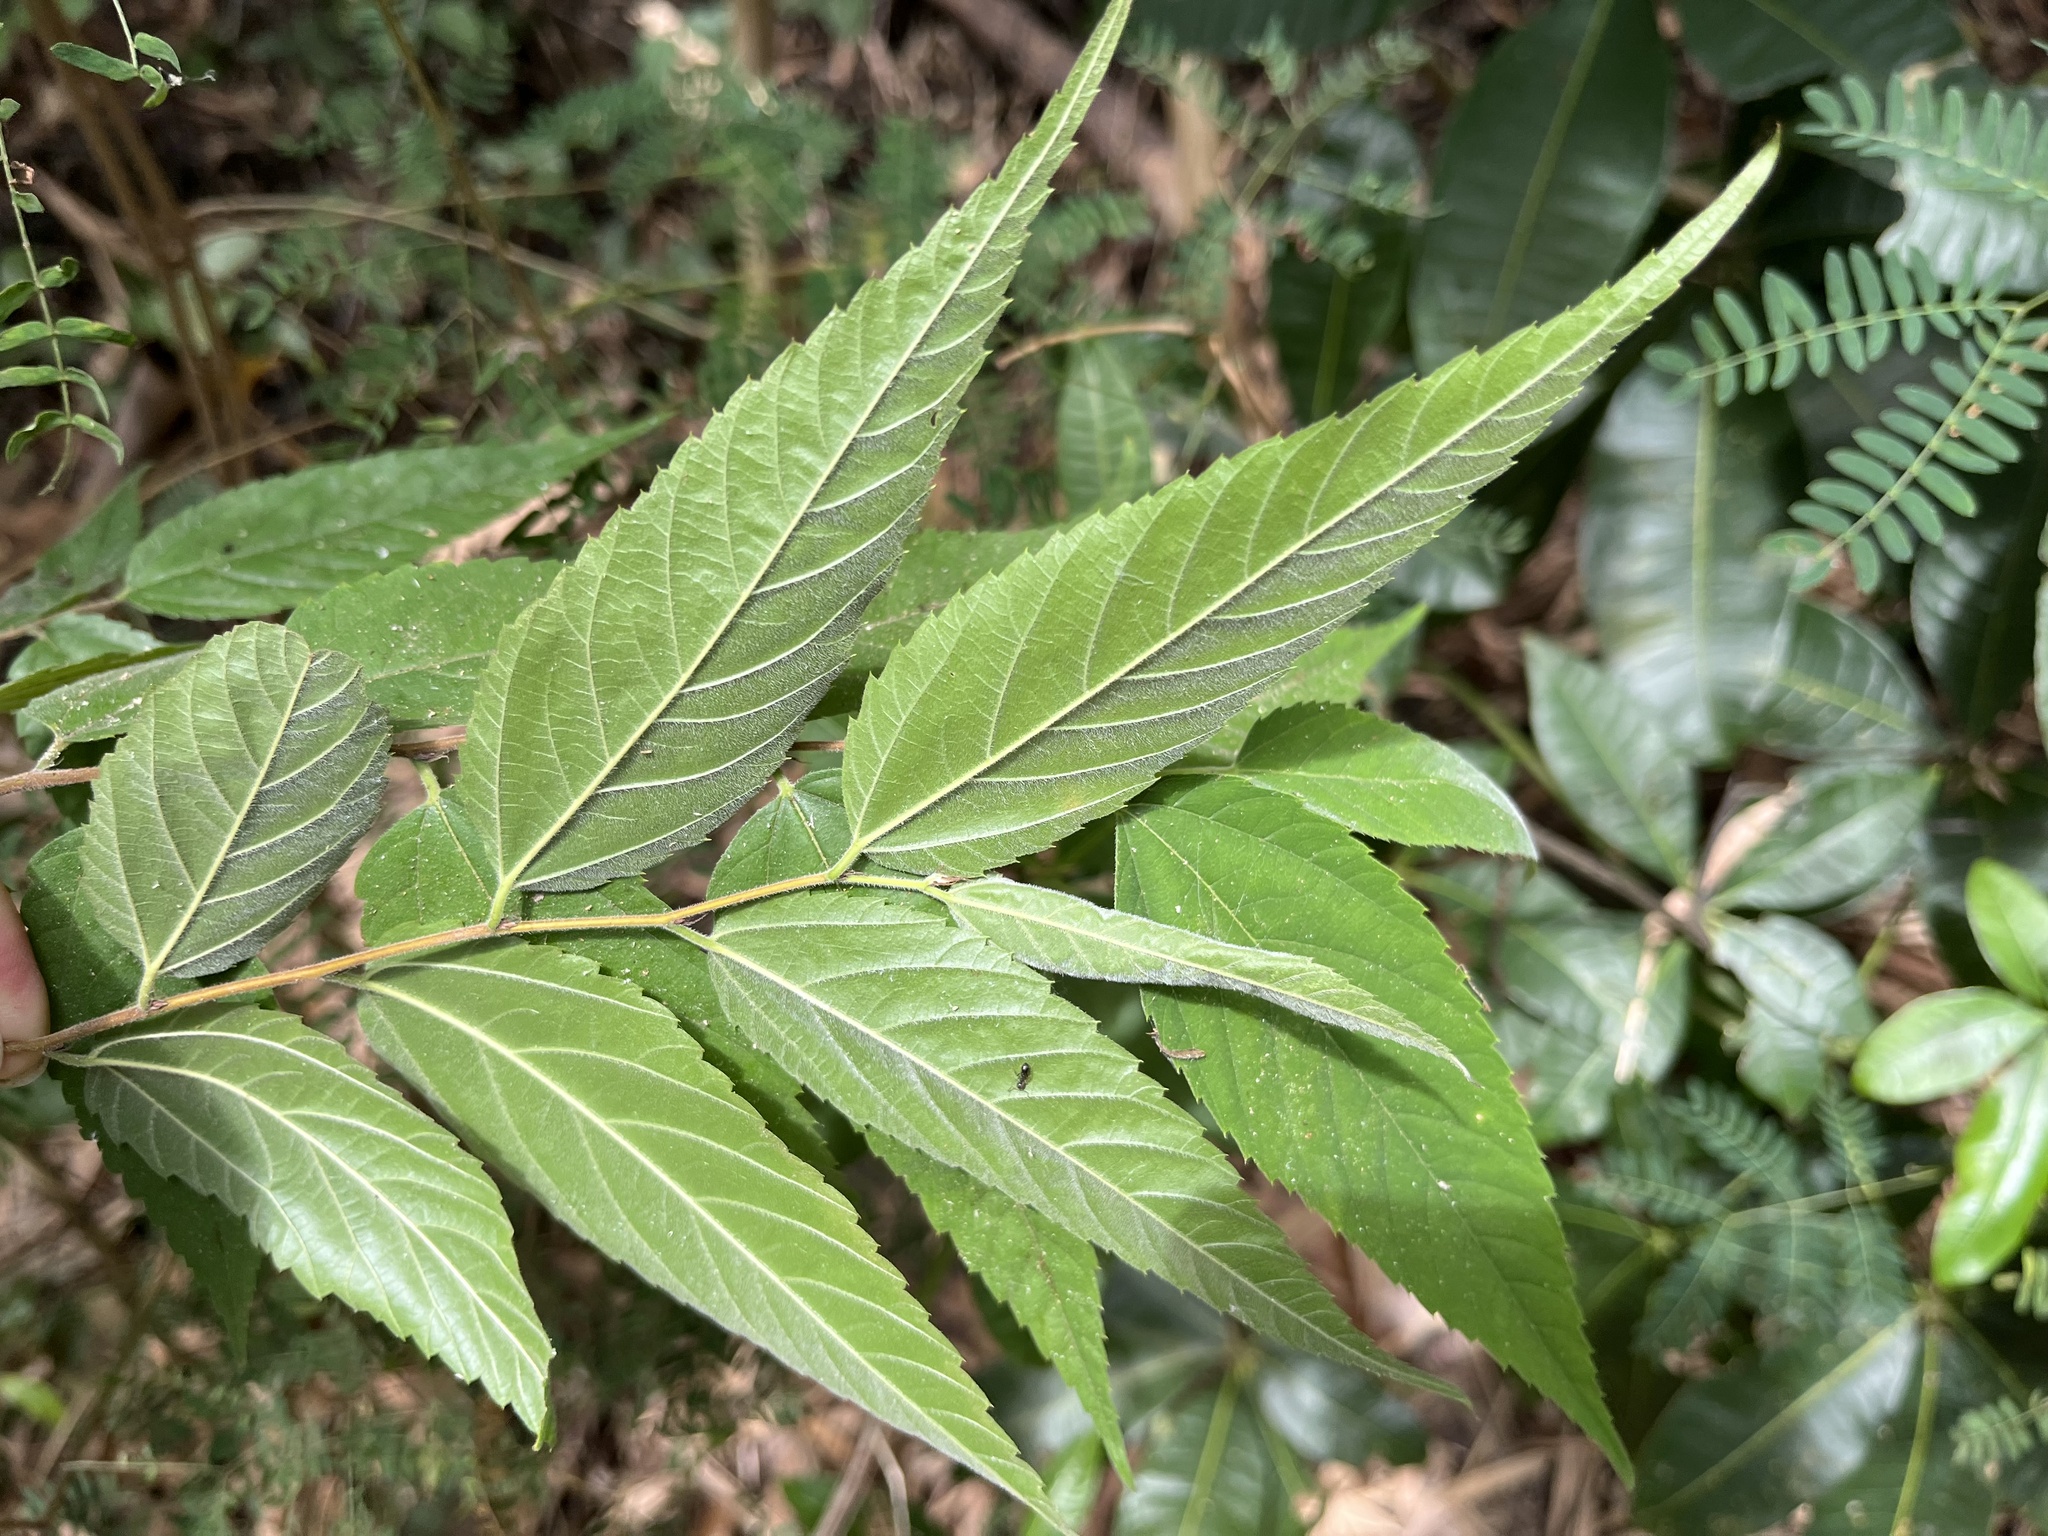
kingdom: Plantae
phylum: Tracheophyta
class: Magnoliopsida
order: Rosales
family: Cannabaceae
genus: Aphananthe
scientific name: Aphananthe aspera
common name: Mukutree
